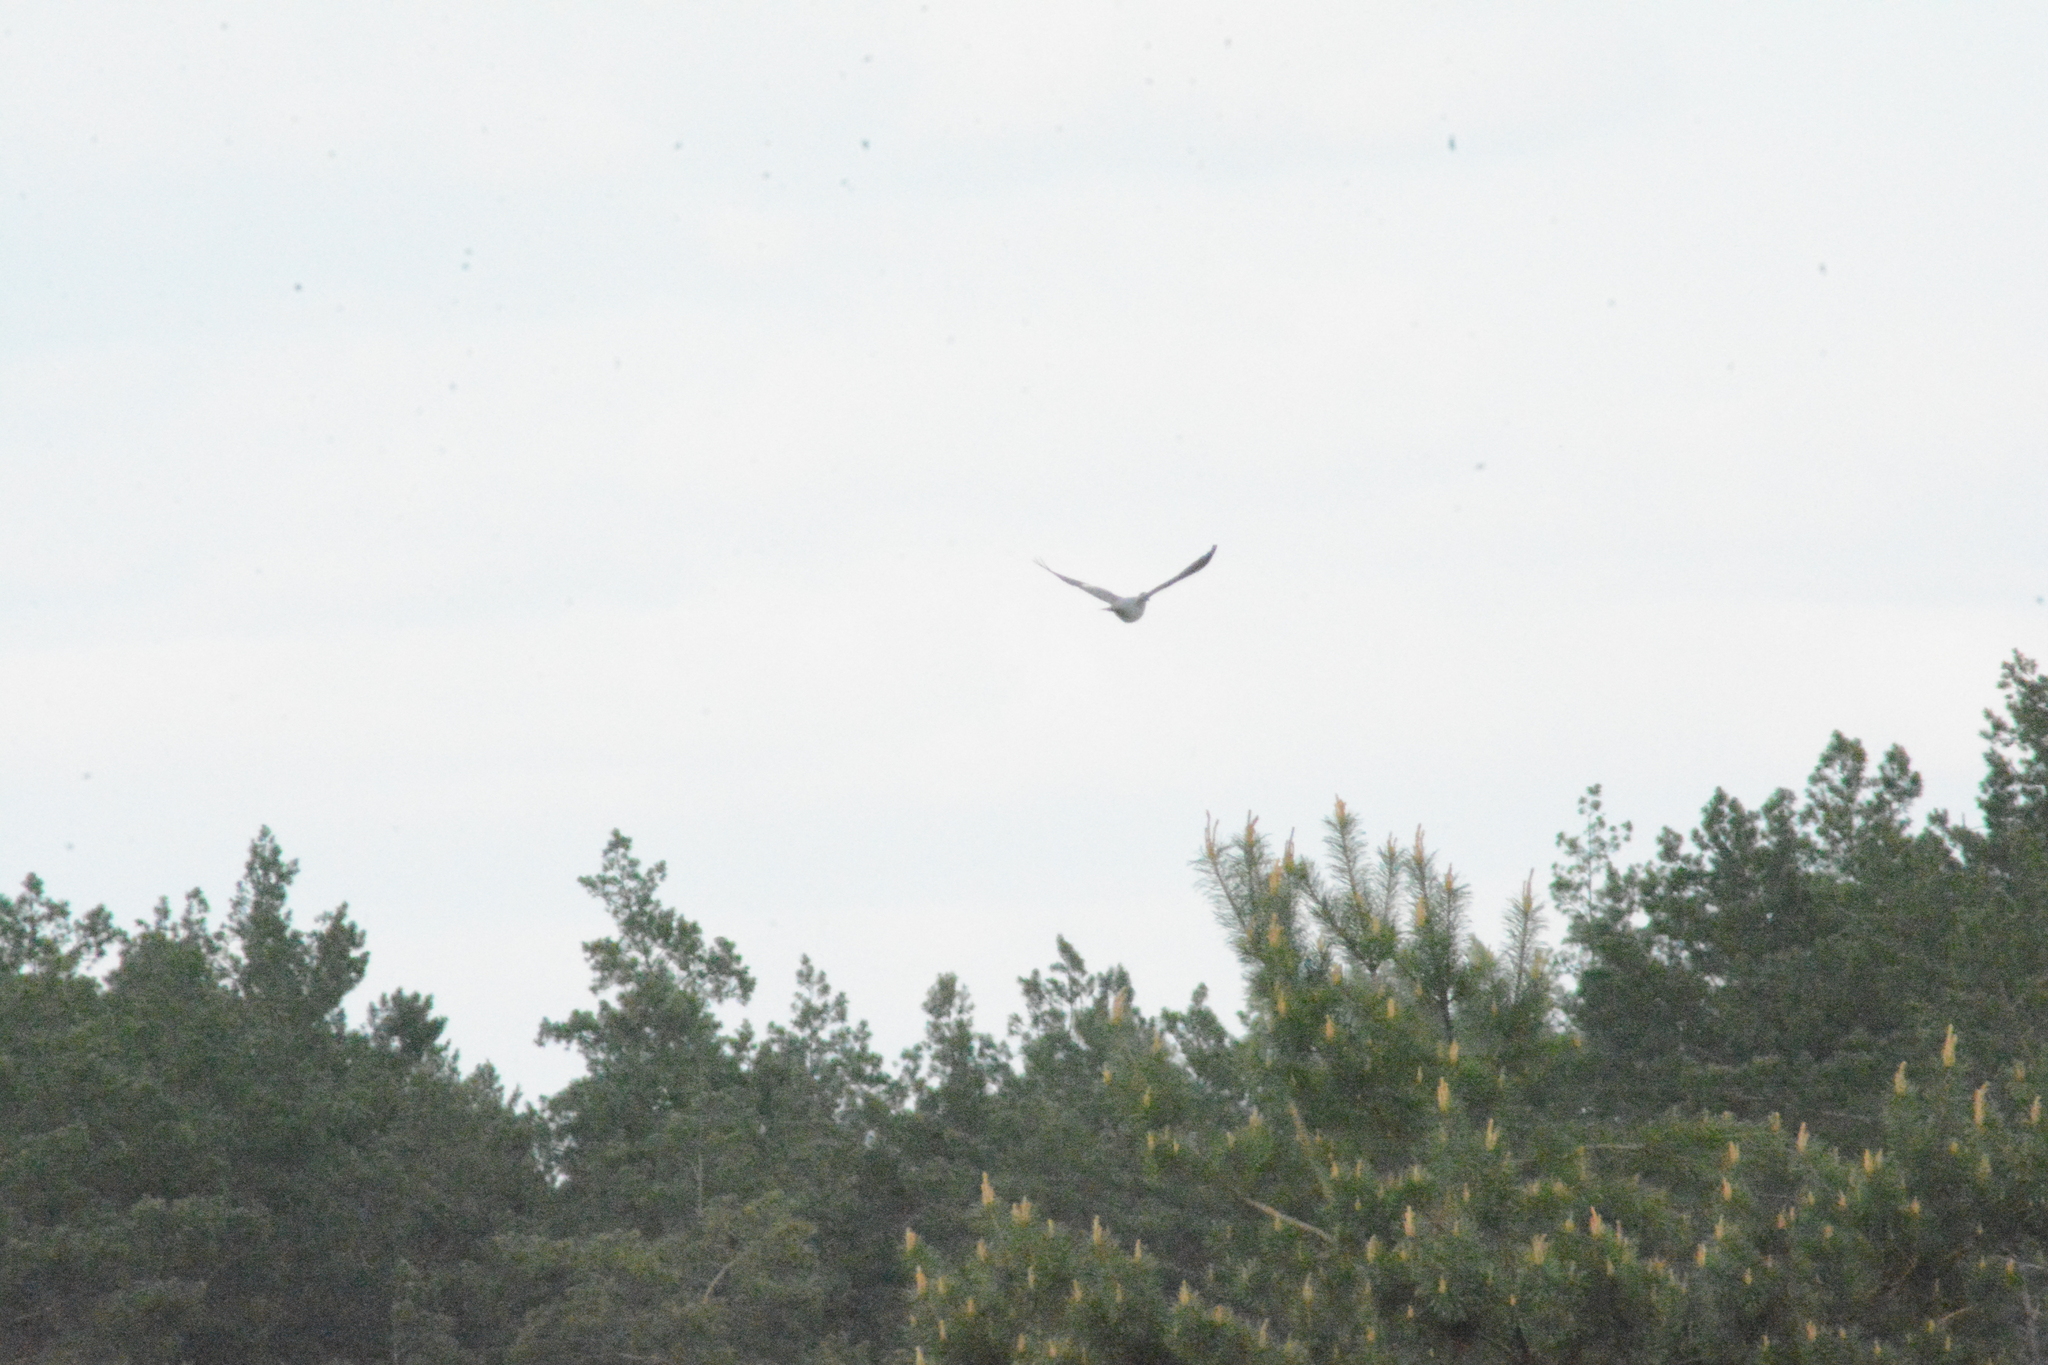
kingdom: Animalia
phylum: Chordata
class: Aves
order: Columbiformes
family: Columbidae
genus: Columba
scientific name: Columba palumbus
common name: Common wood pigeon
